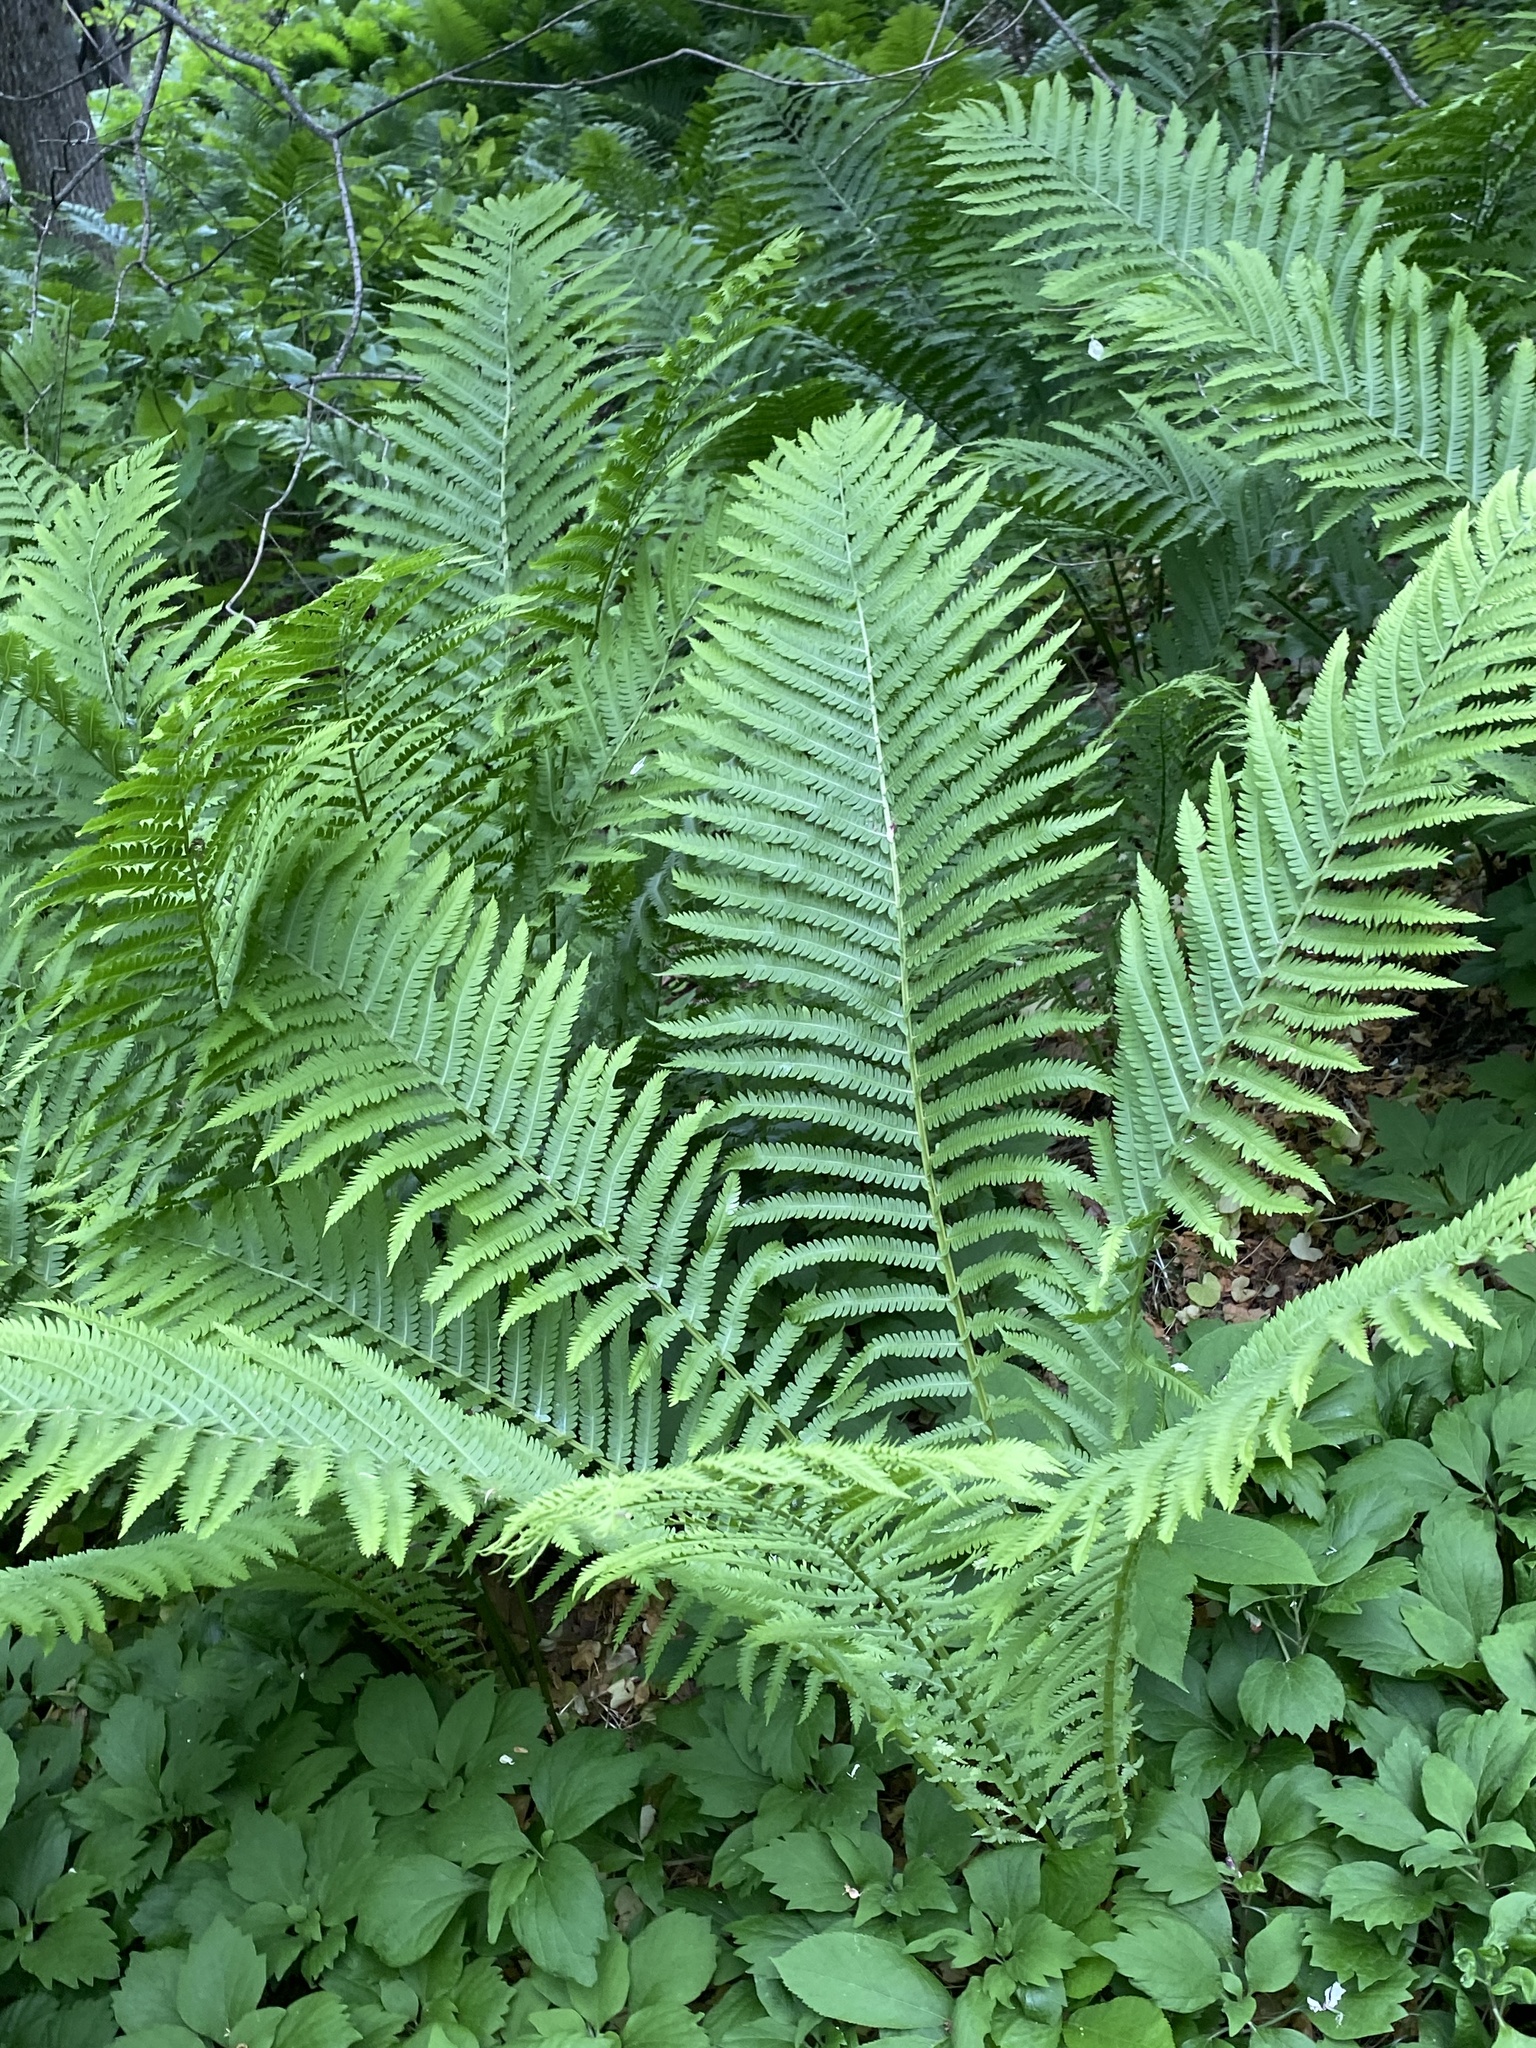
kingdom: Plantae
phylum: Tracheophyta
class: Polypodiopsida
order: Polypodiales
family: Onocleaceae
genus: Matteuccia
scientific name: Matteuccia struthiopteris
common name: Ostrich fern
